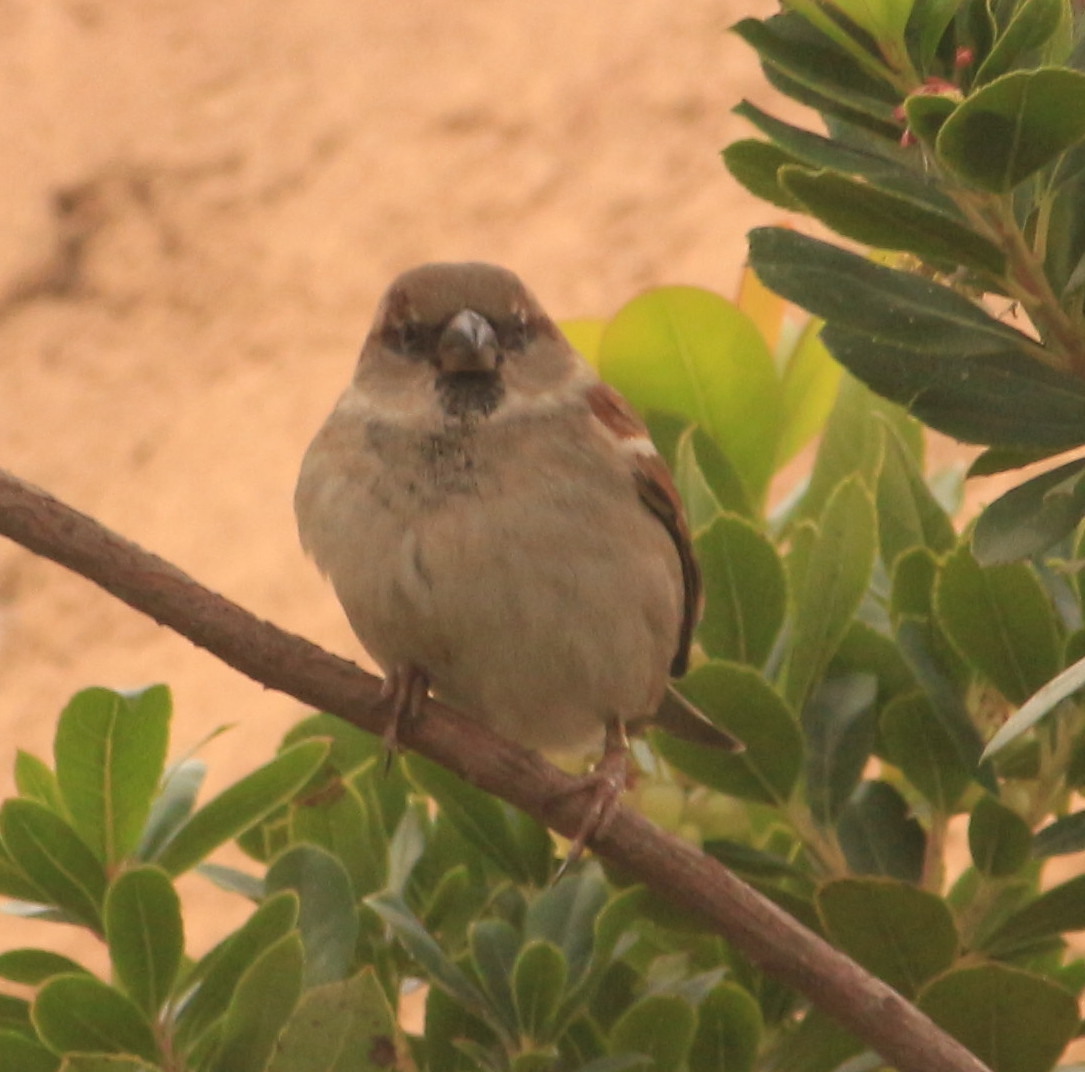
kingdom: Animalia
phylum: Chordata
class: Aves
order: Passeriformes
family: Passeridae
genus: Passer
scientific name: Passer domesticus
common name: House sparrow
